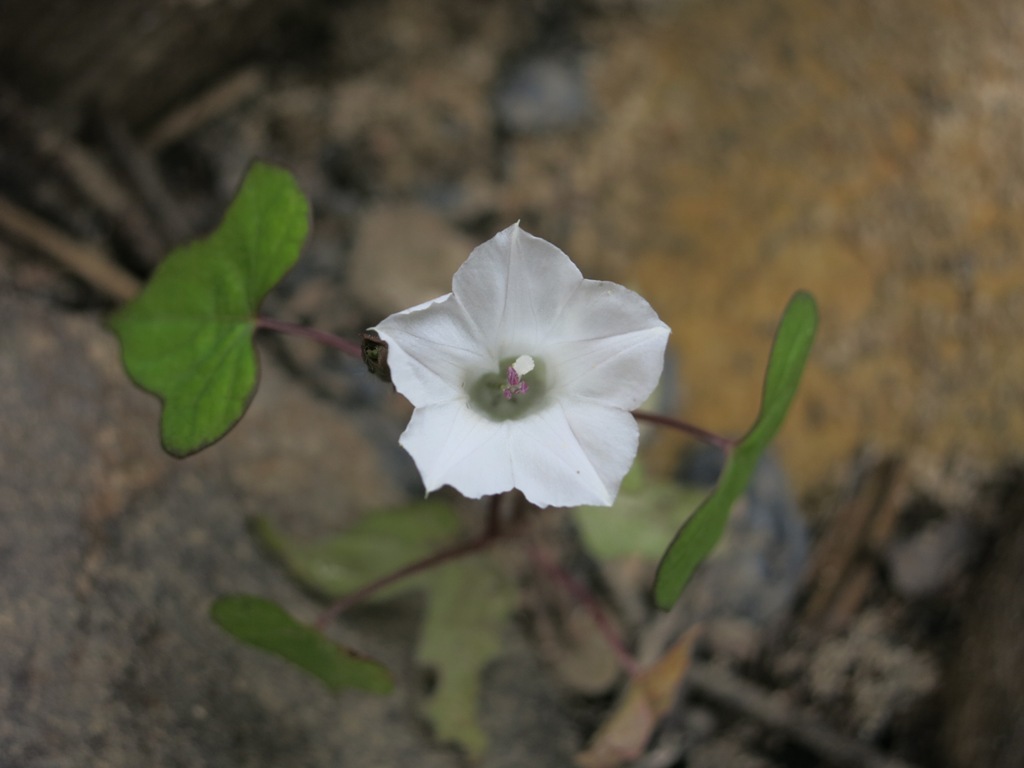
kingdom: Plantae
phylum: Tracheophyta
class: Magnoliopsida
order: Solanales
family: Convolvulaceae
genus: Ipomoea
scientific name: Ipomoea lacunosa
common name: White morning-glory
